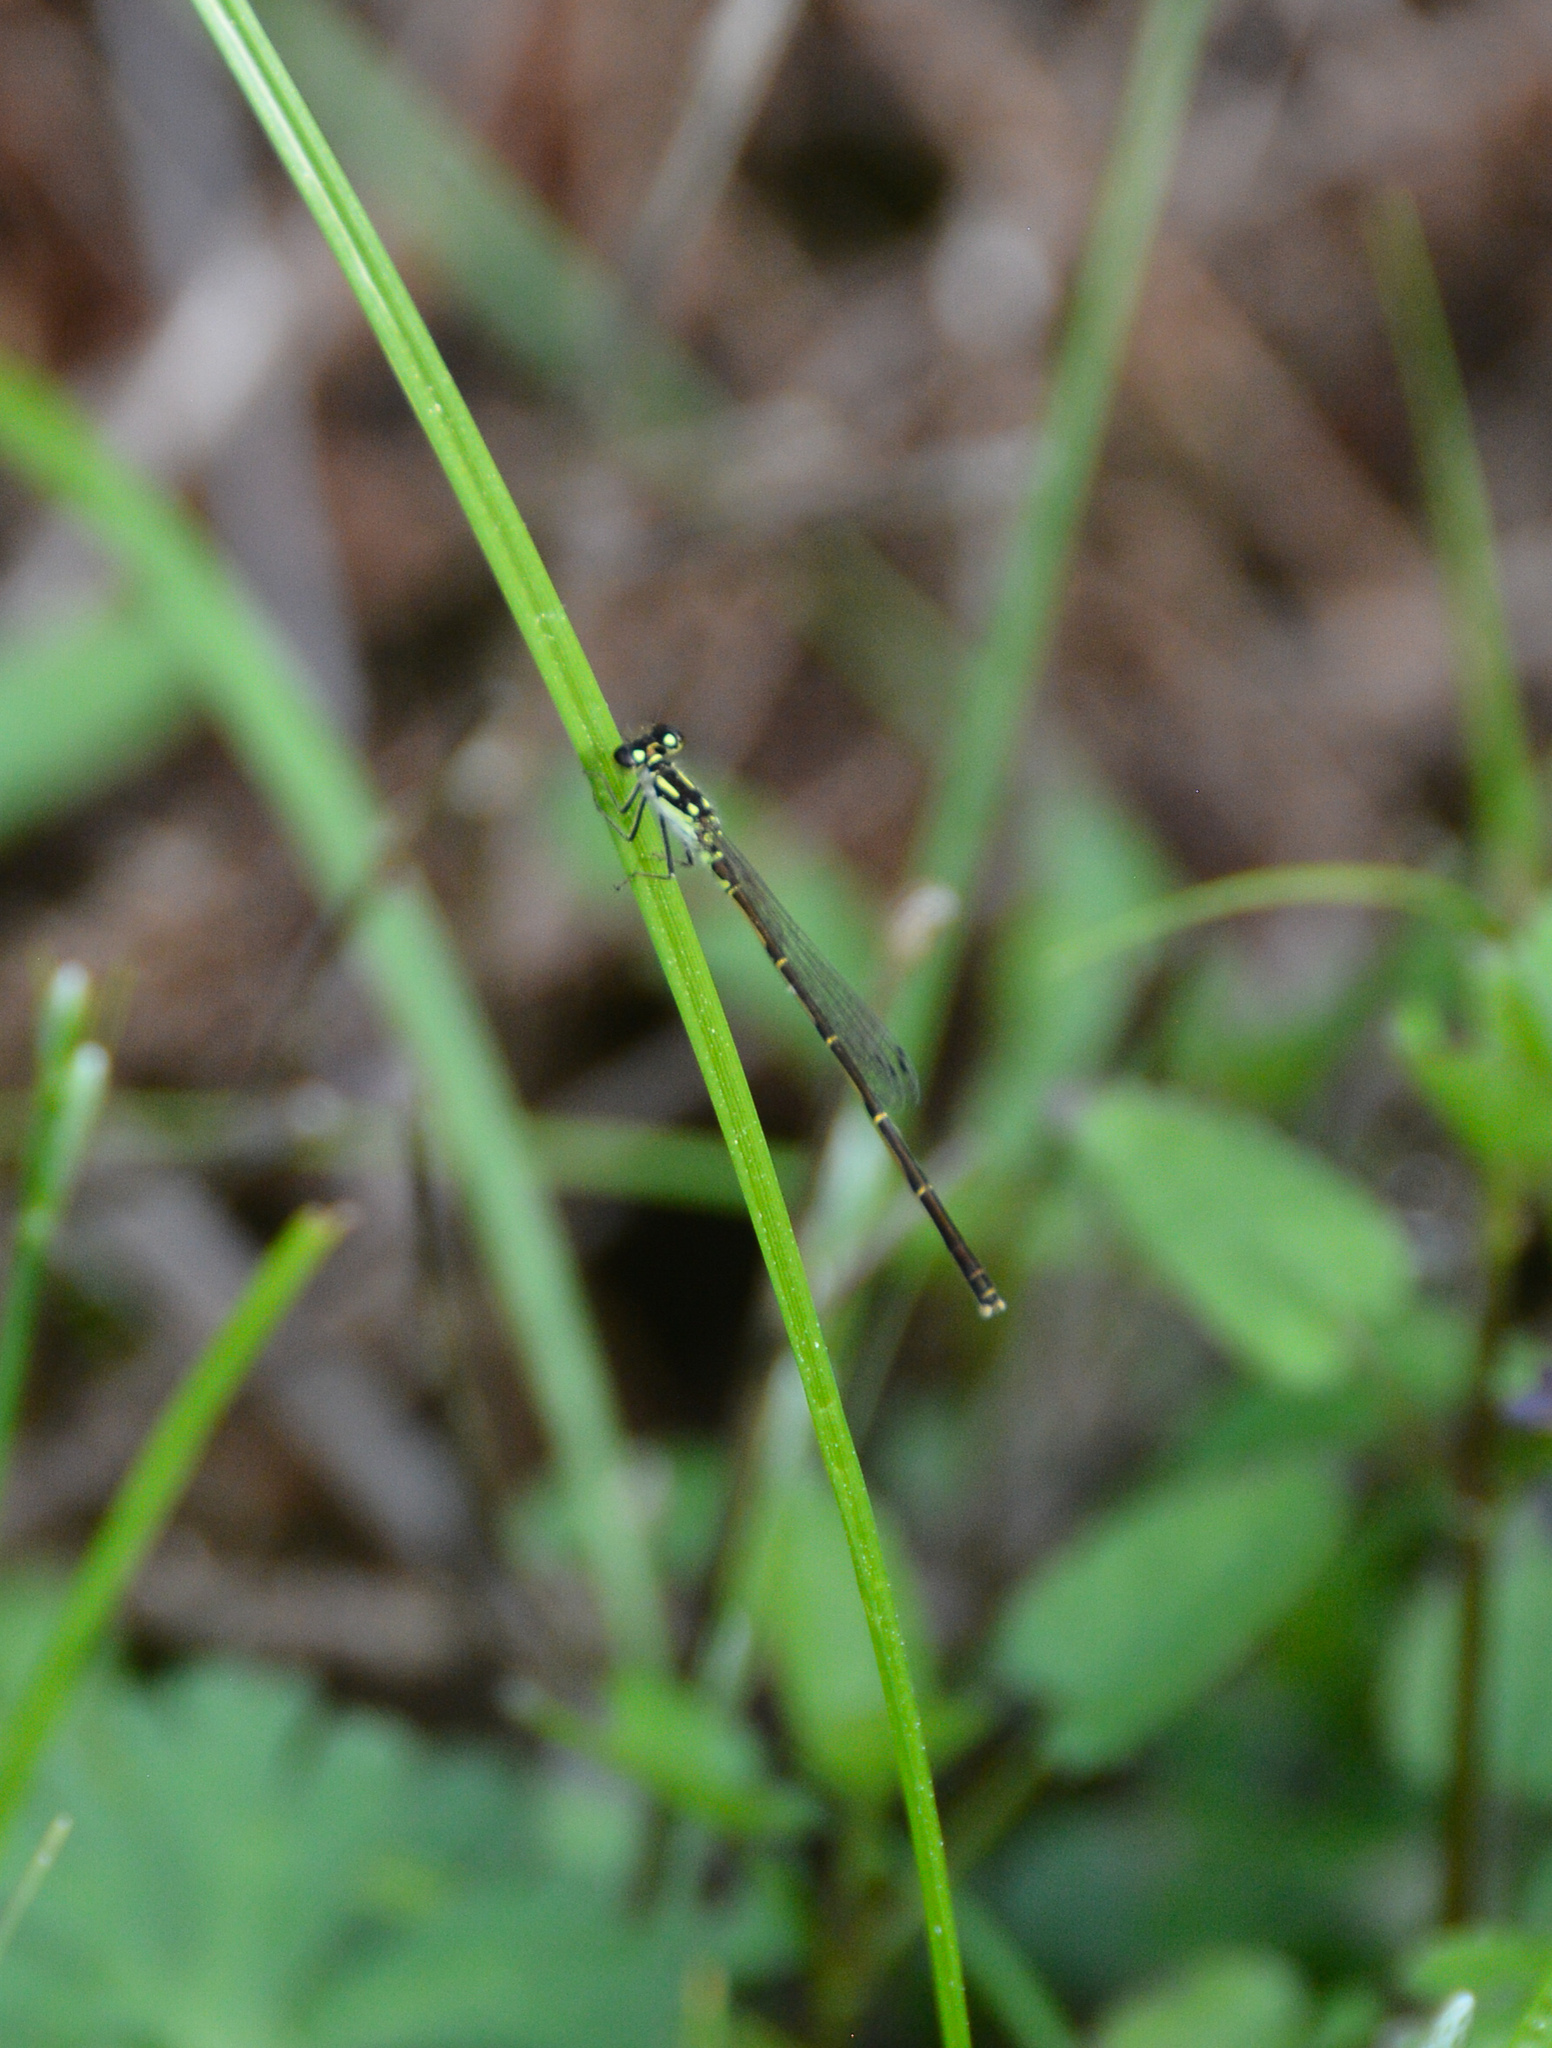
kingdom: Animalia
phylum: Arthropoda
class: Insecta
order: Odonata
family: Coenagrionidae
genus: Ischnura
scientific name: Ischnura posita
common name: Fragile forktail
